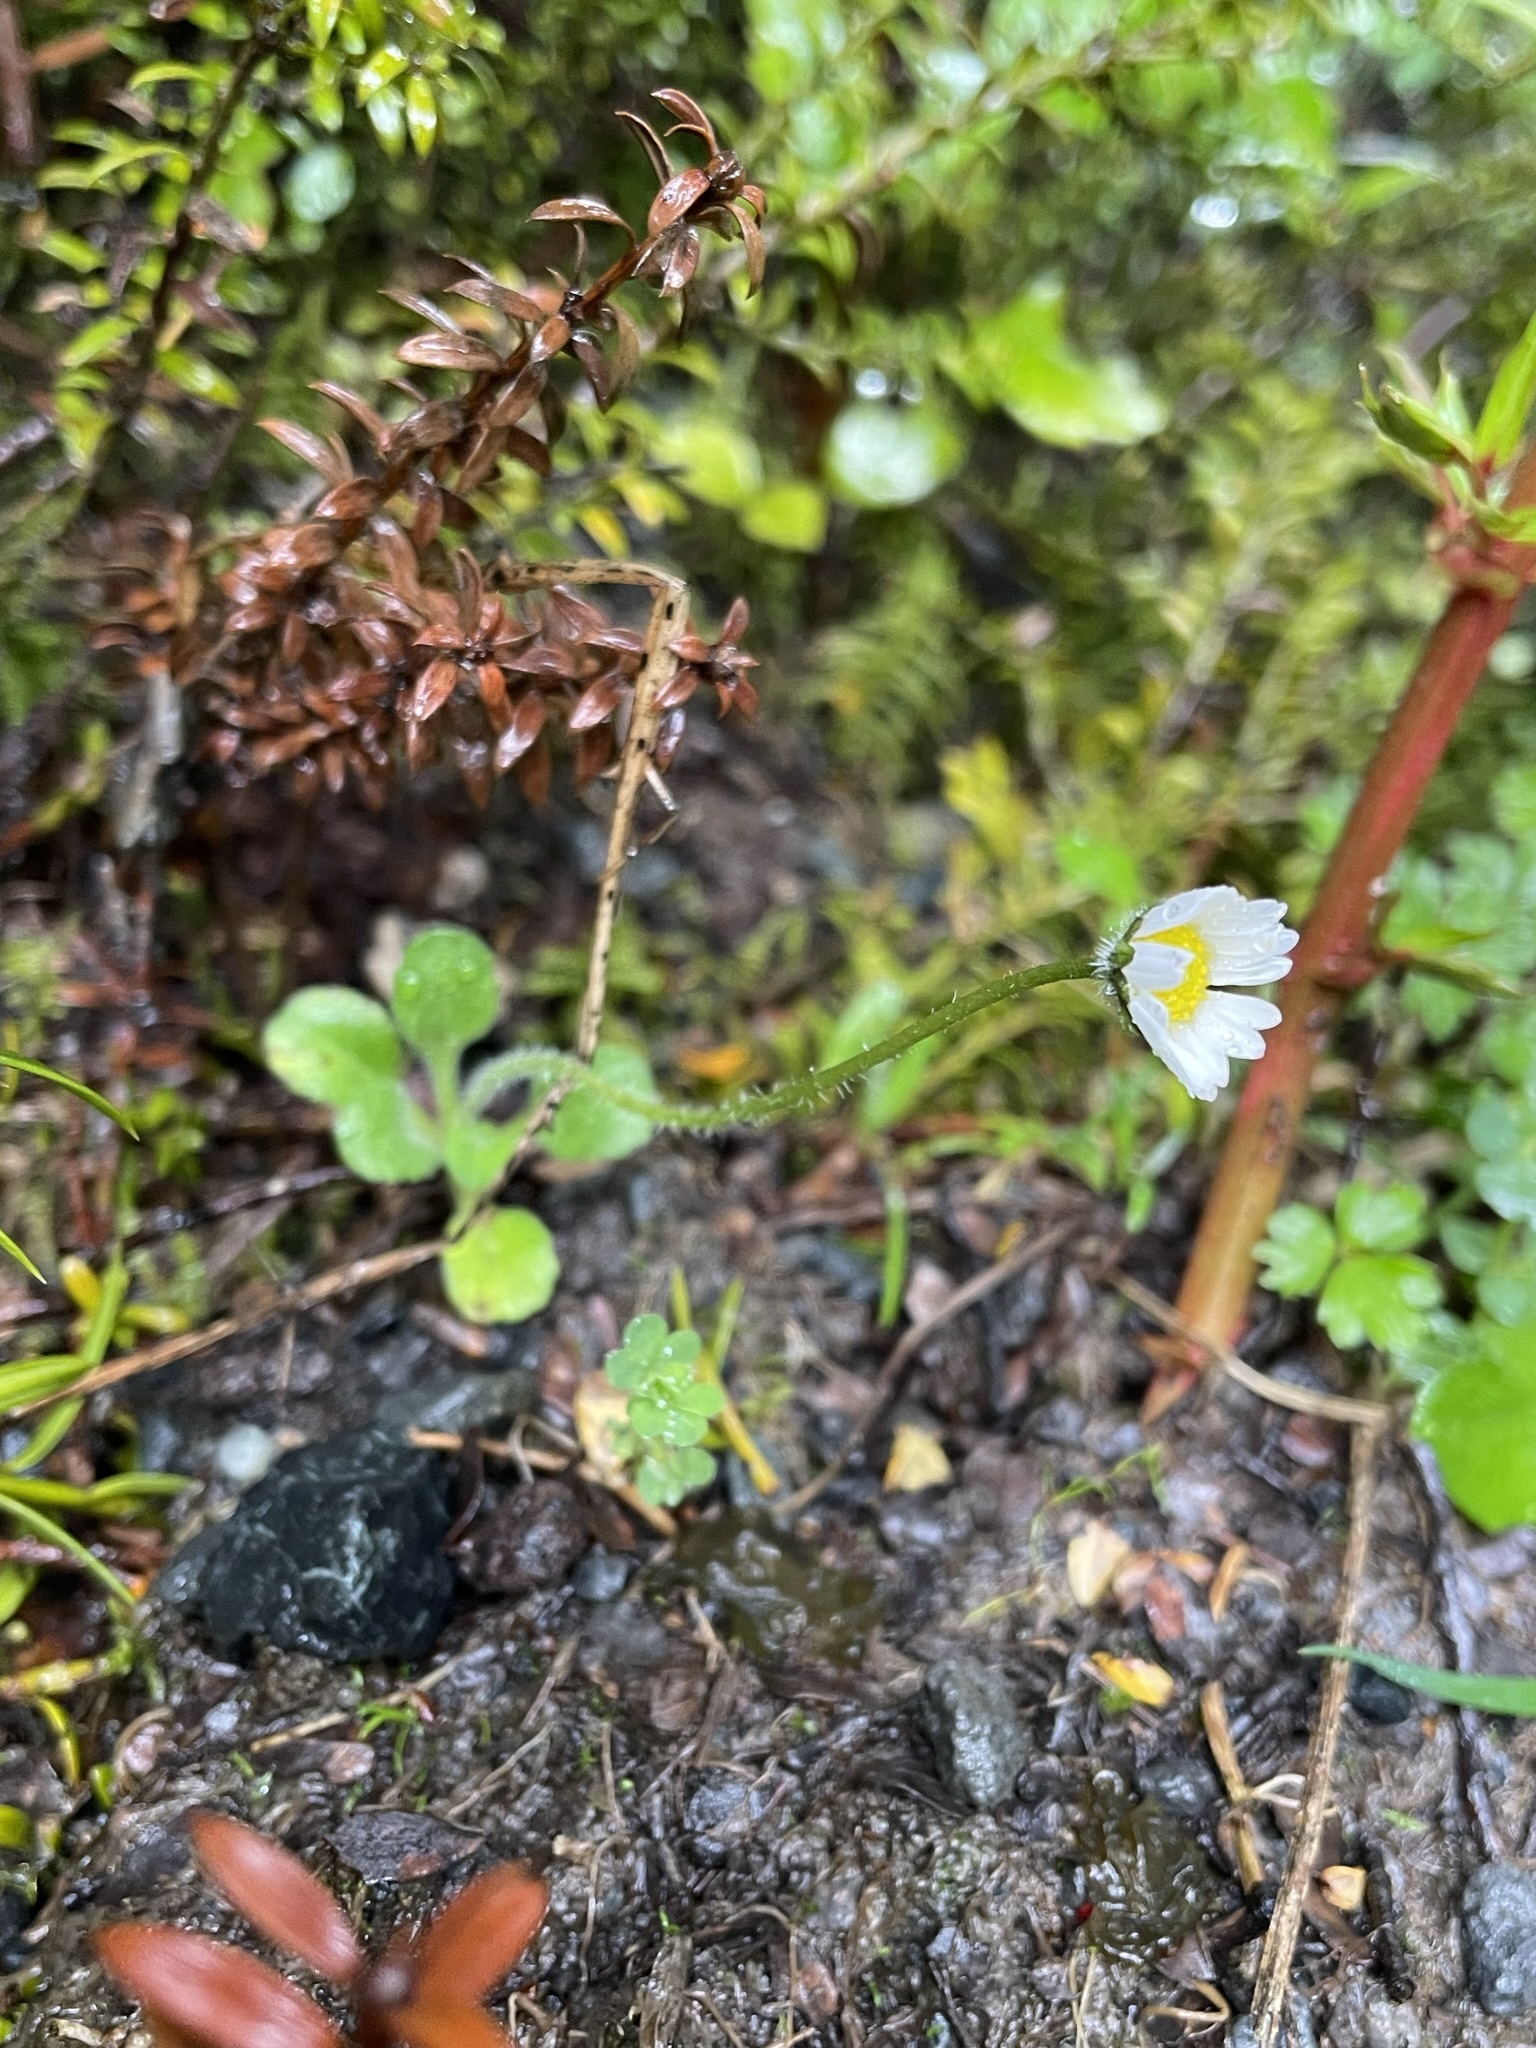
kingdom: Plantae
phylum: Tracheophyta
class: Magnoliopsida
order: Asterales
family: Asteraceae
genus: Bellis
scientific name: Bellis perennis
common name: Lawndaisy
